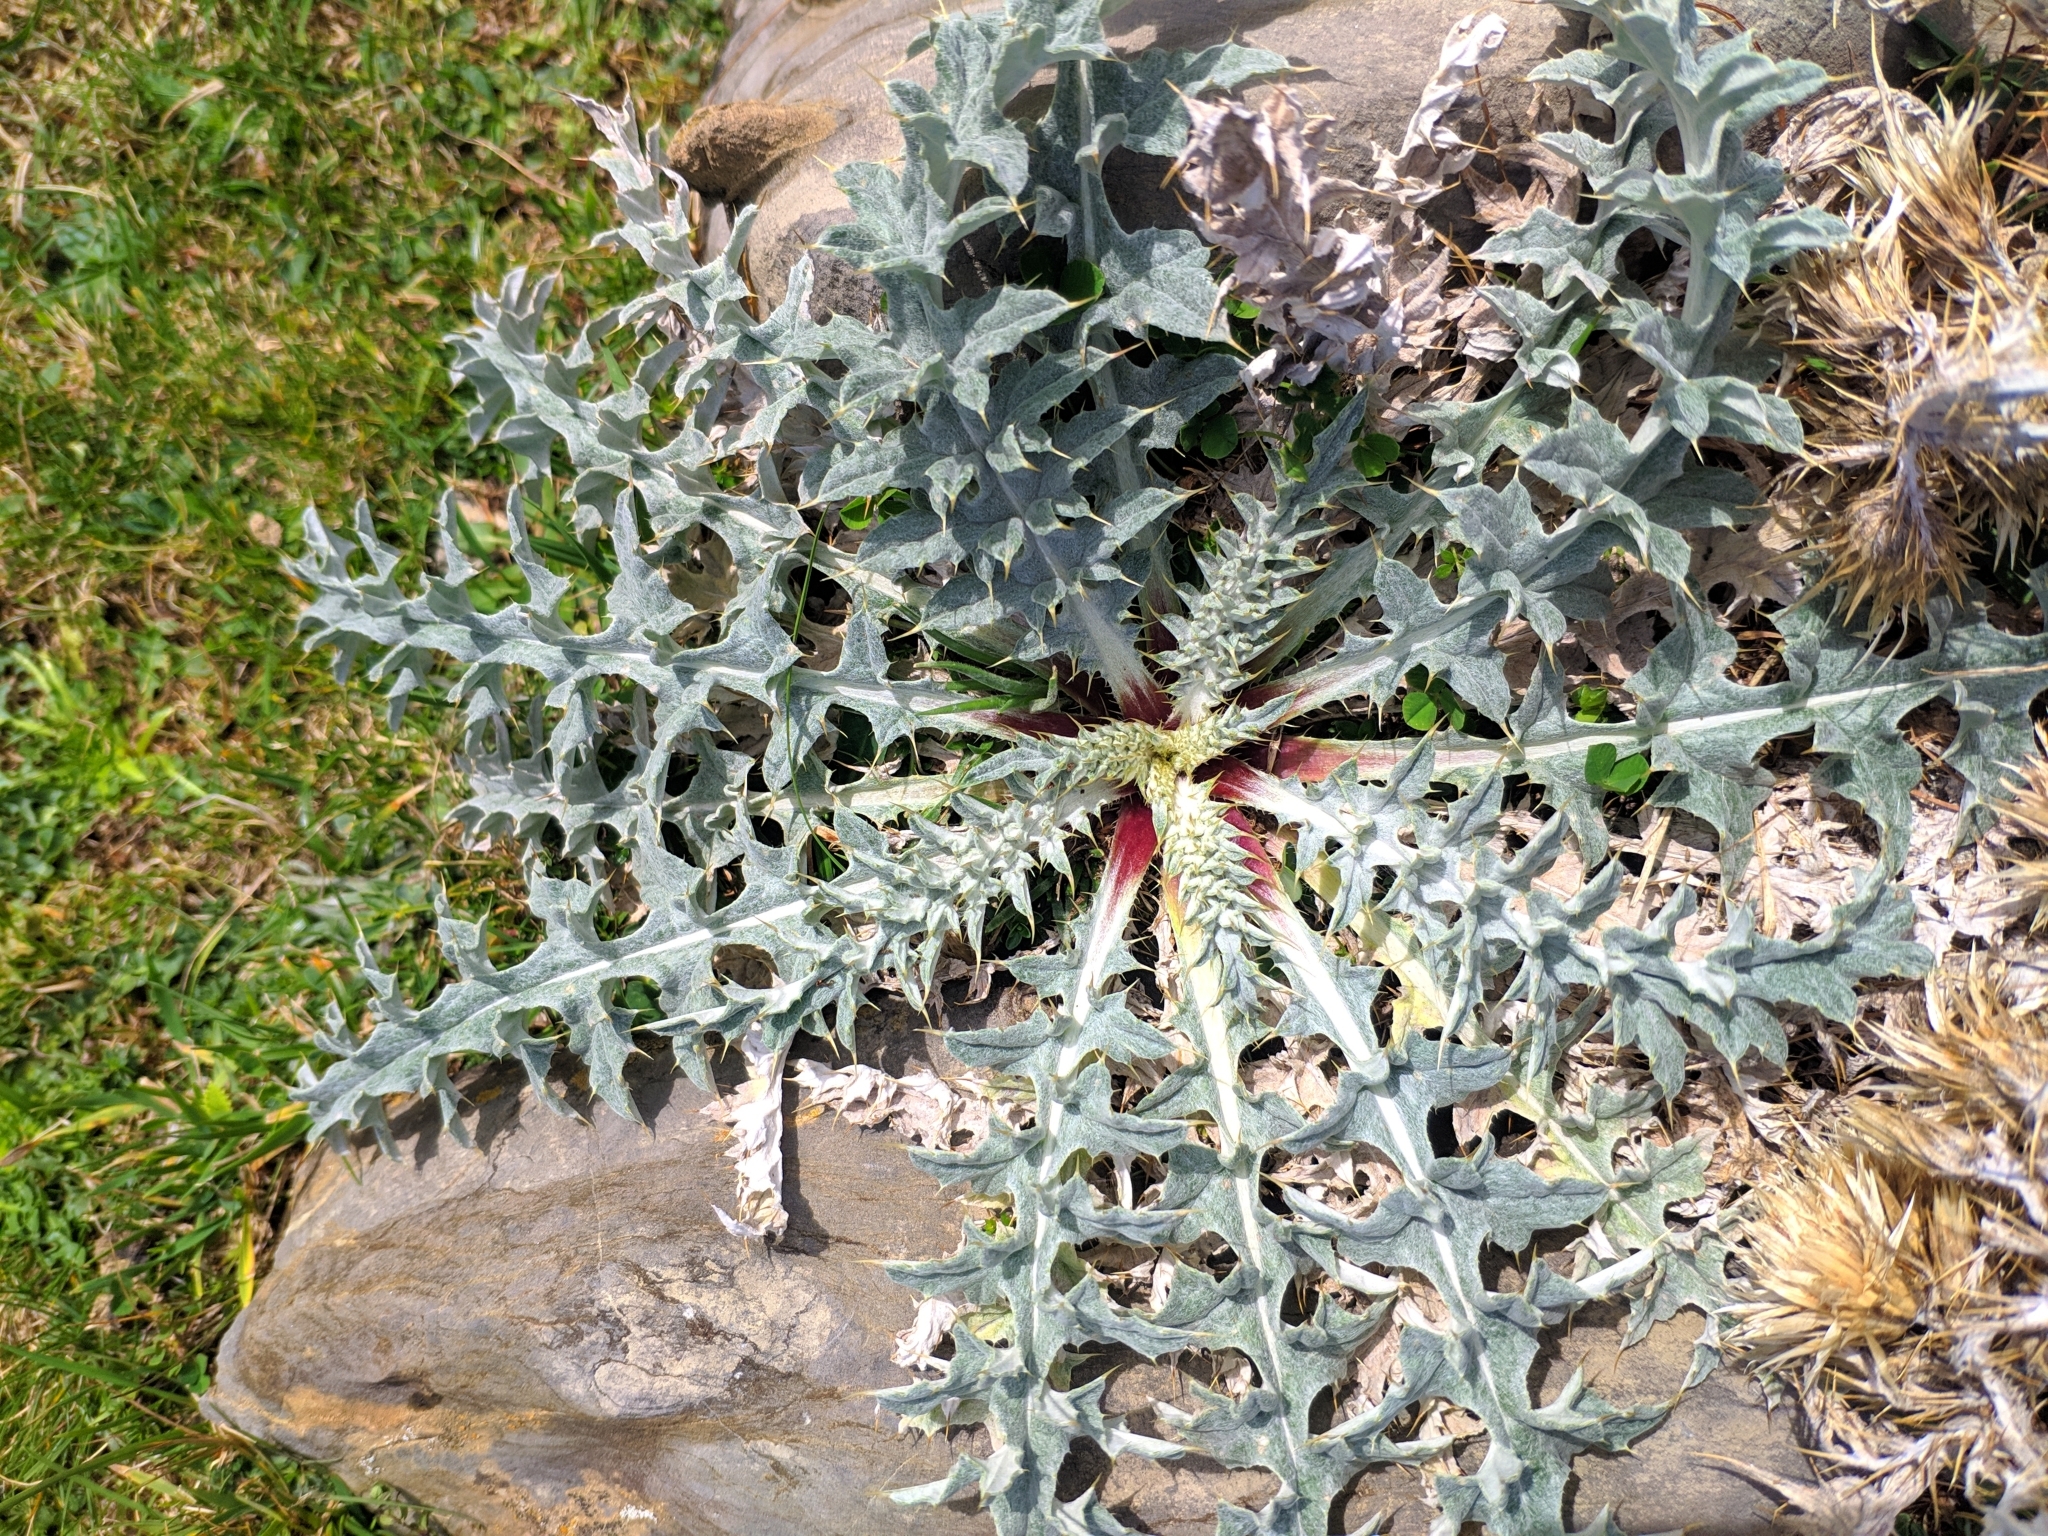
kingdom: Plantae
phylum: Tracheophyta
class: Magnoliopsida
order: Asterales
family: Asteraceae
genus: Carduus
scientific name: Carduus carlinoides
